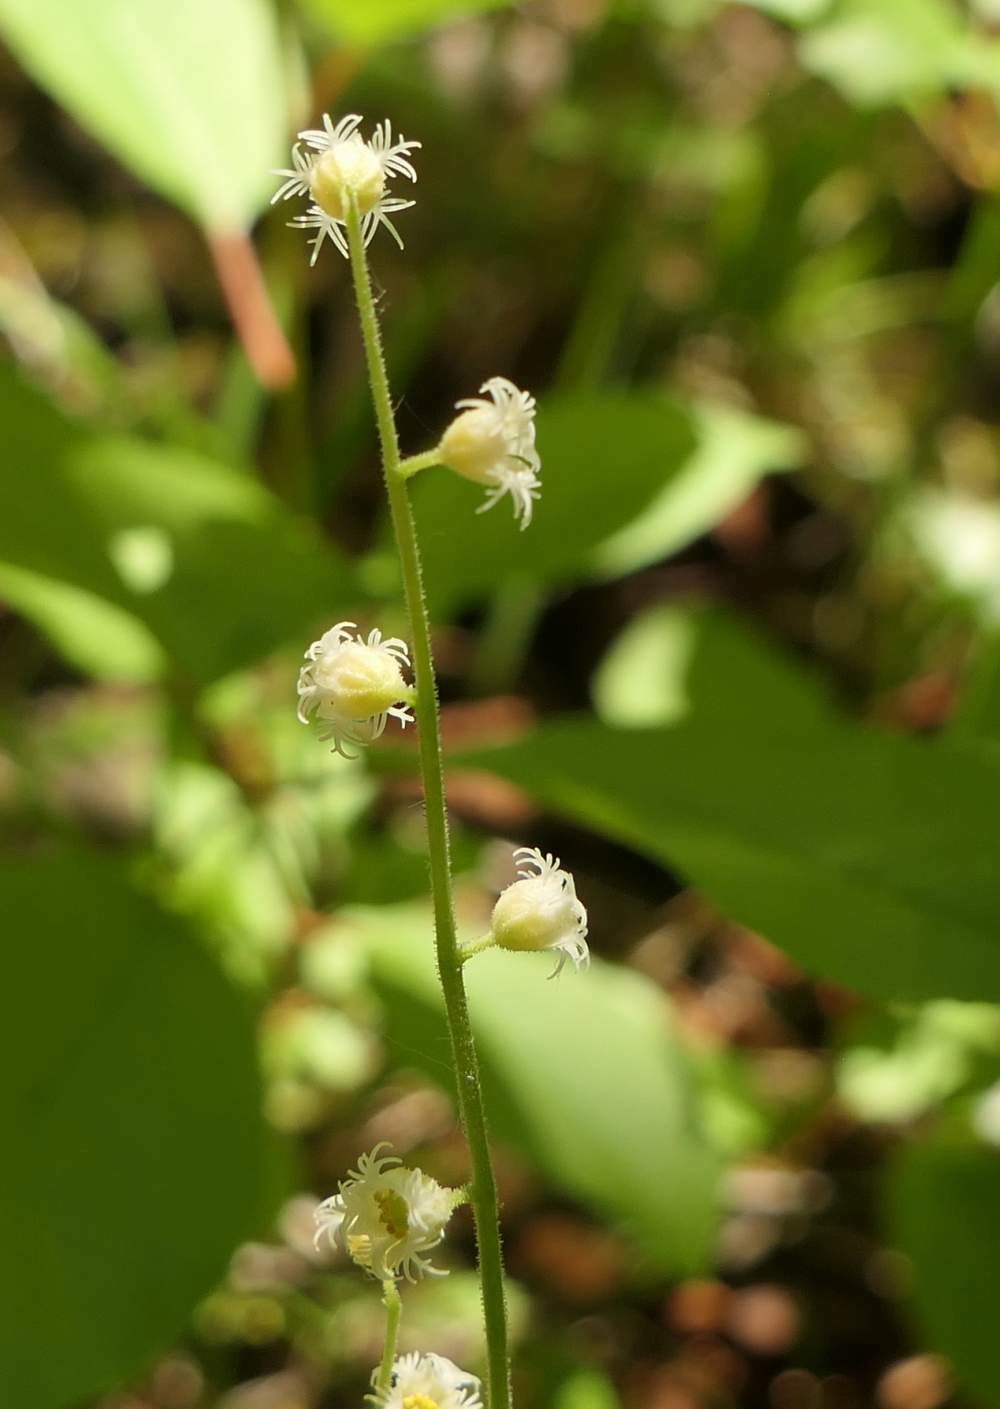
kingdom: Plantae
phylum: Tracheophyta
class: Magnoliopsida
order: Saxifragales
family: Saxifragaceae
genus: Mitella
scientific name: Mitella diphylla
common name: Coolwort
